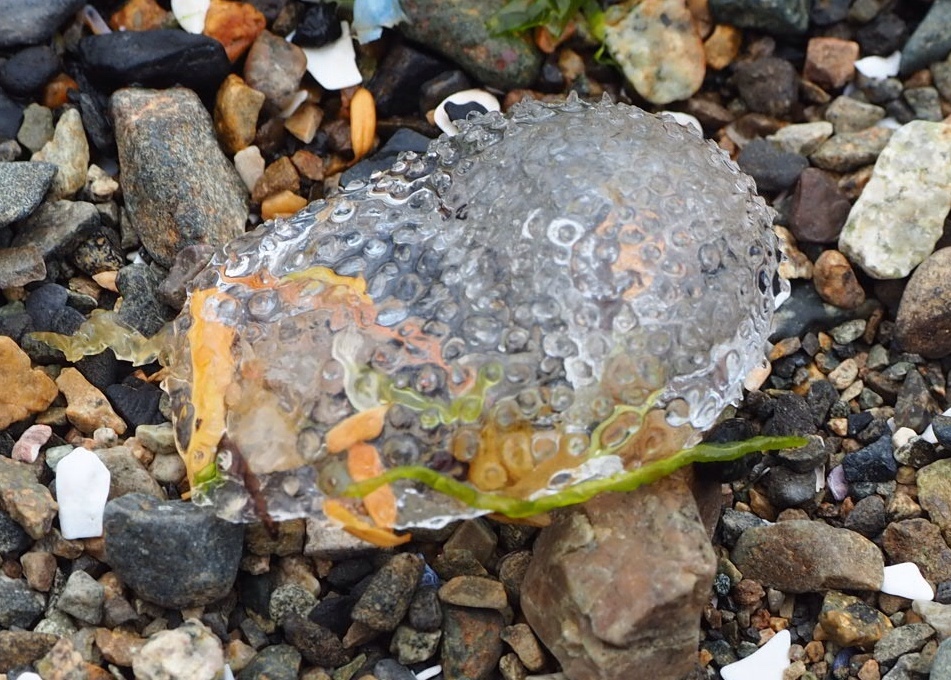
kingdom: Animalia
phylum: Mollusca
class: Gastropoda
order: Pteropoda
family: Cymbuliidae
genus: Corolla
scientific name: Corolla spectabilis
